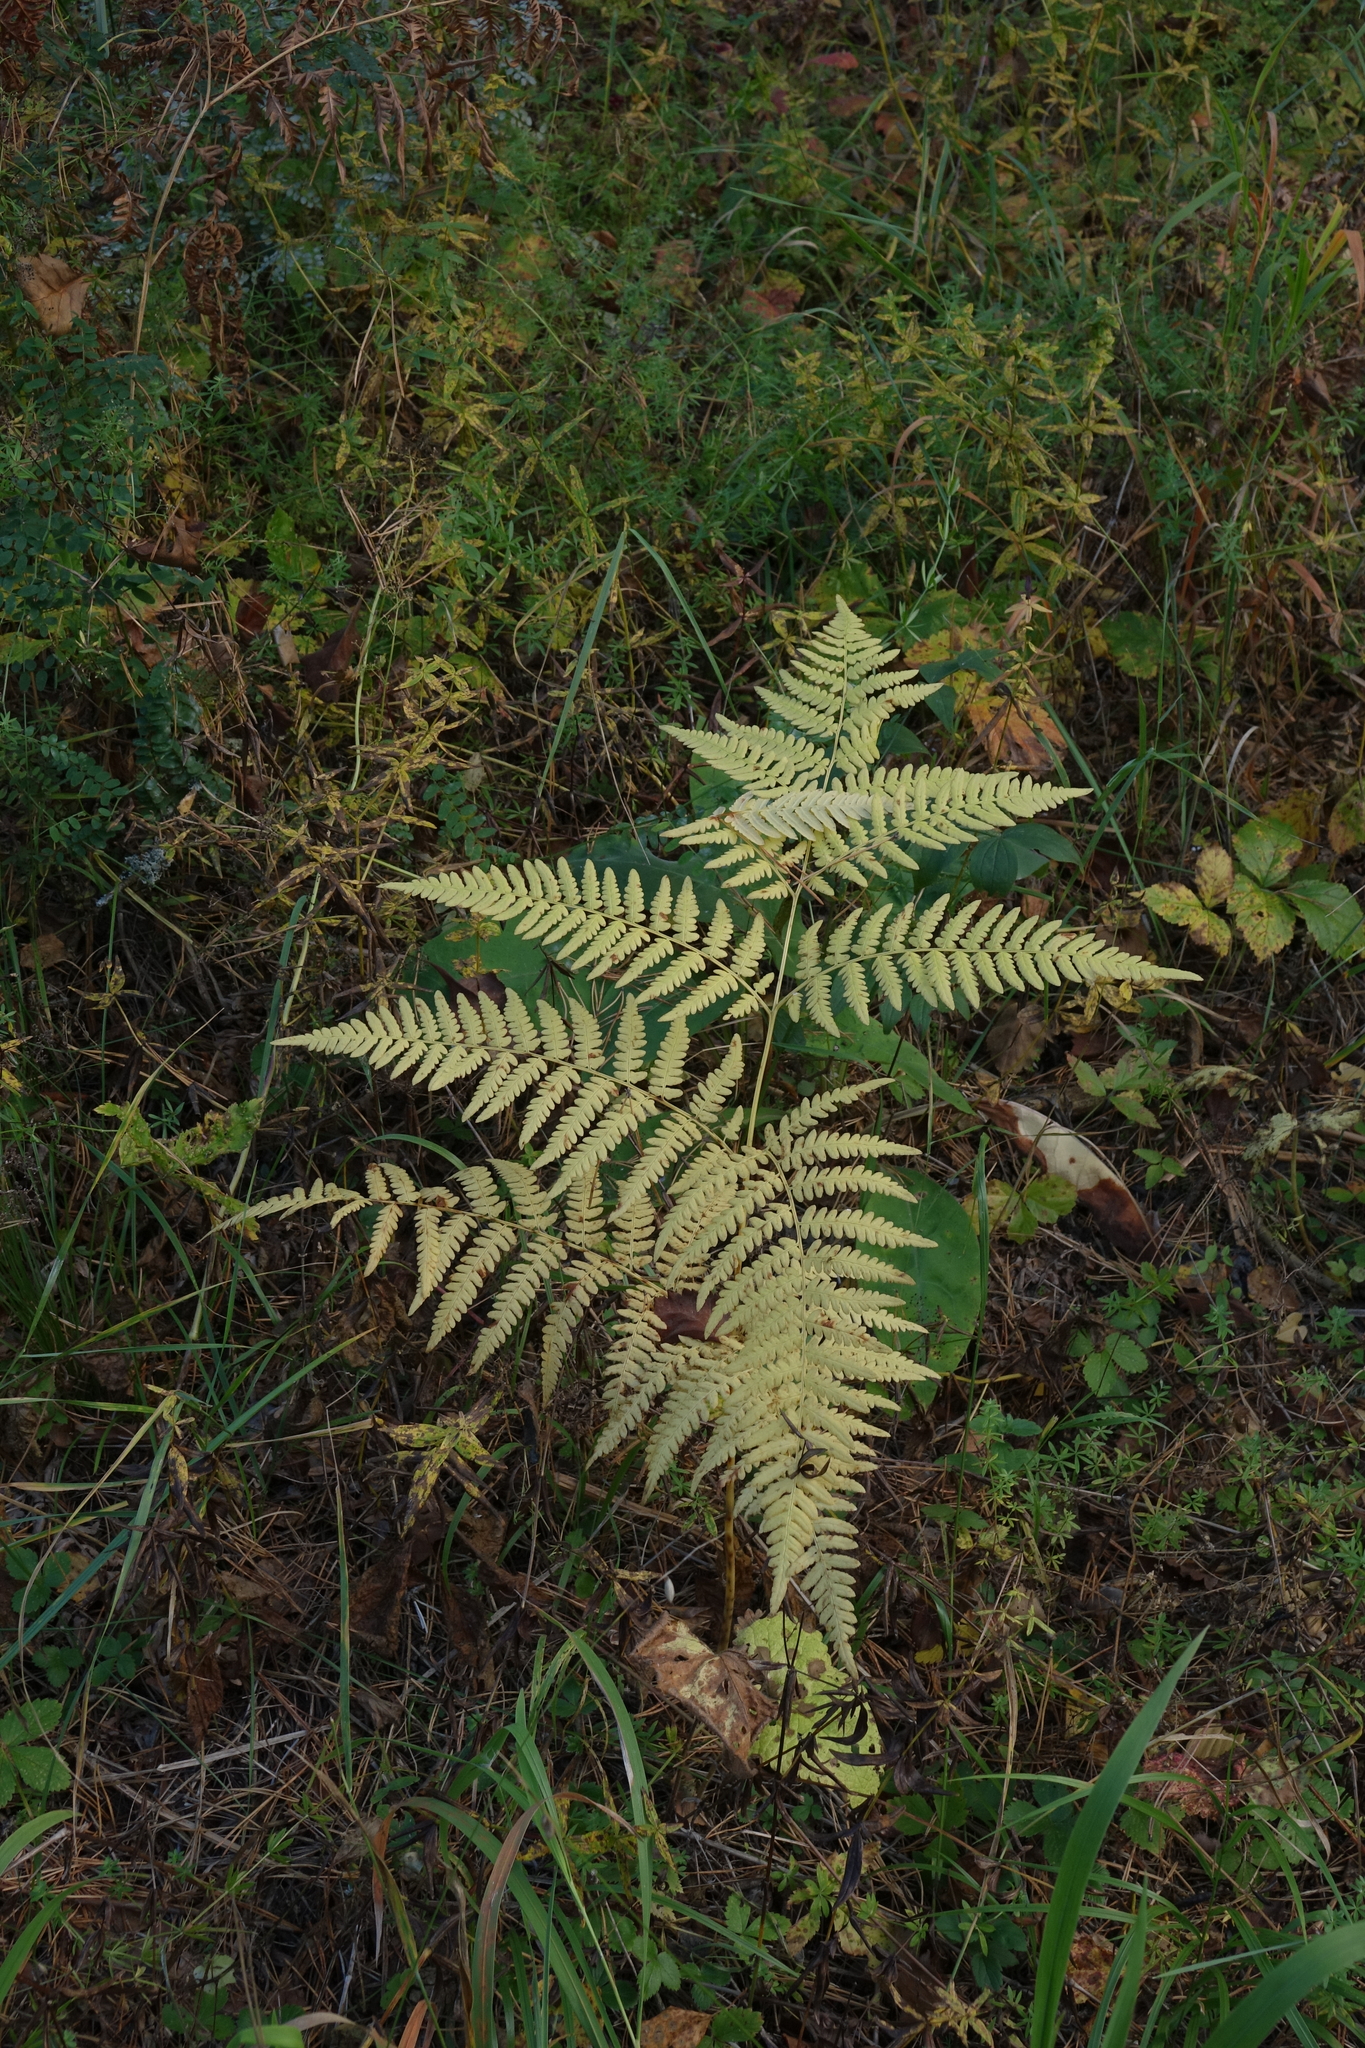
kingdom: Plantae
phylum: Tracheophyta
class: Polypodiopsida
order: Polypodiales
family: Dennstaedtiaceae
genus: Pteridium
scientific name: Pteridium aquilinum
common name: Bracken
